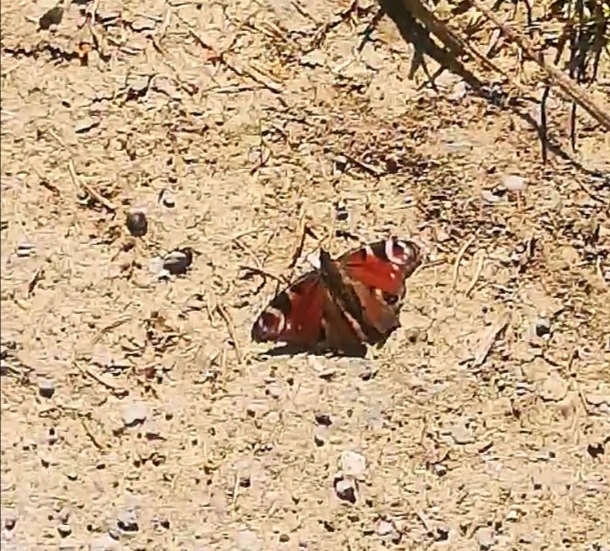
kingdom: Animalia
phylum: Arthropoda
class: Insecta
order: Lepidoptera
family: Nymphalidae
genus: Aglais
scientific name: Aglais io
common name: Peacock
